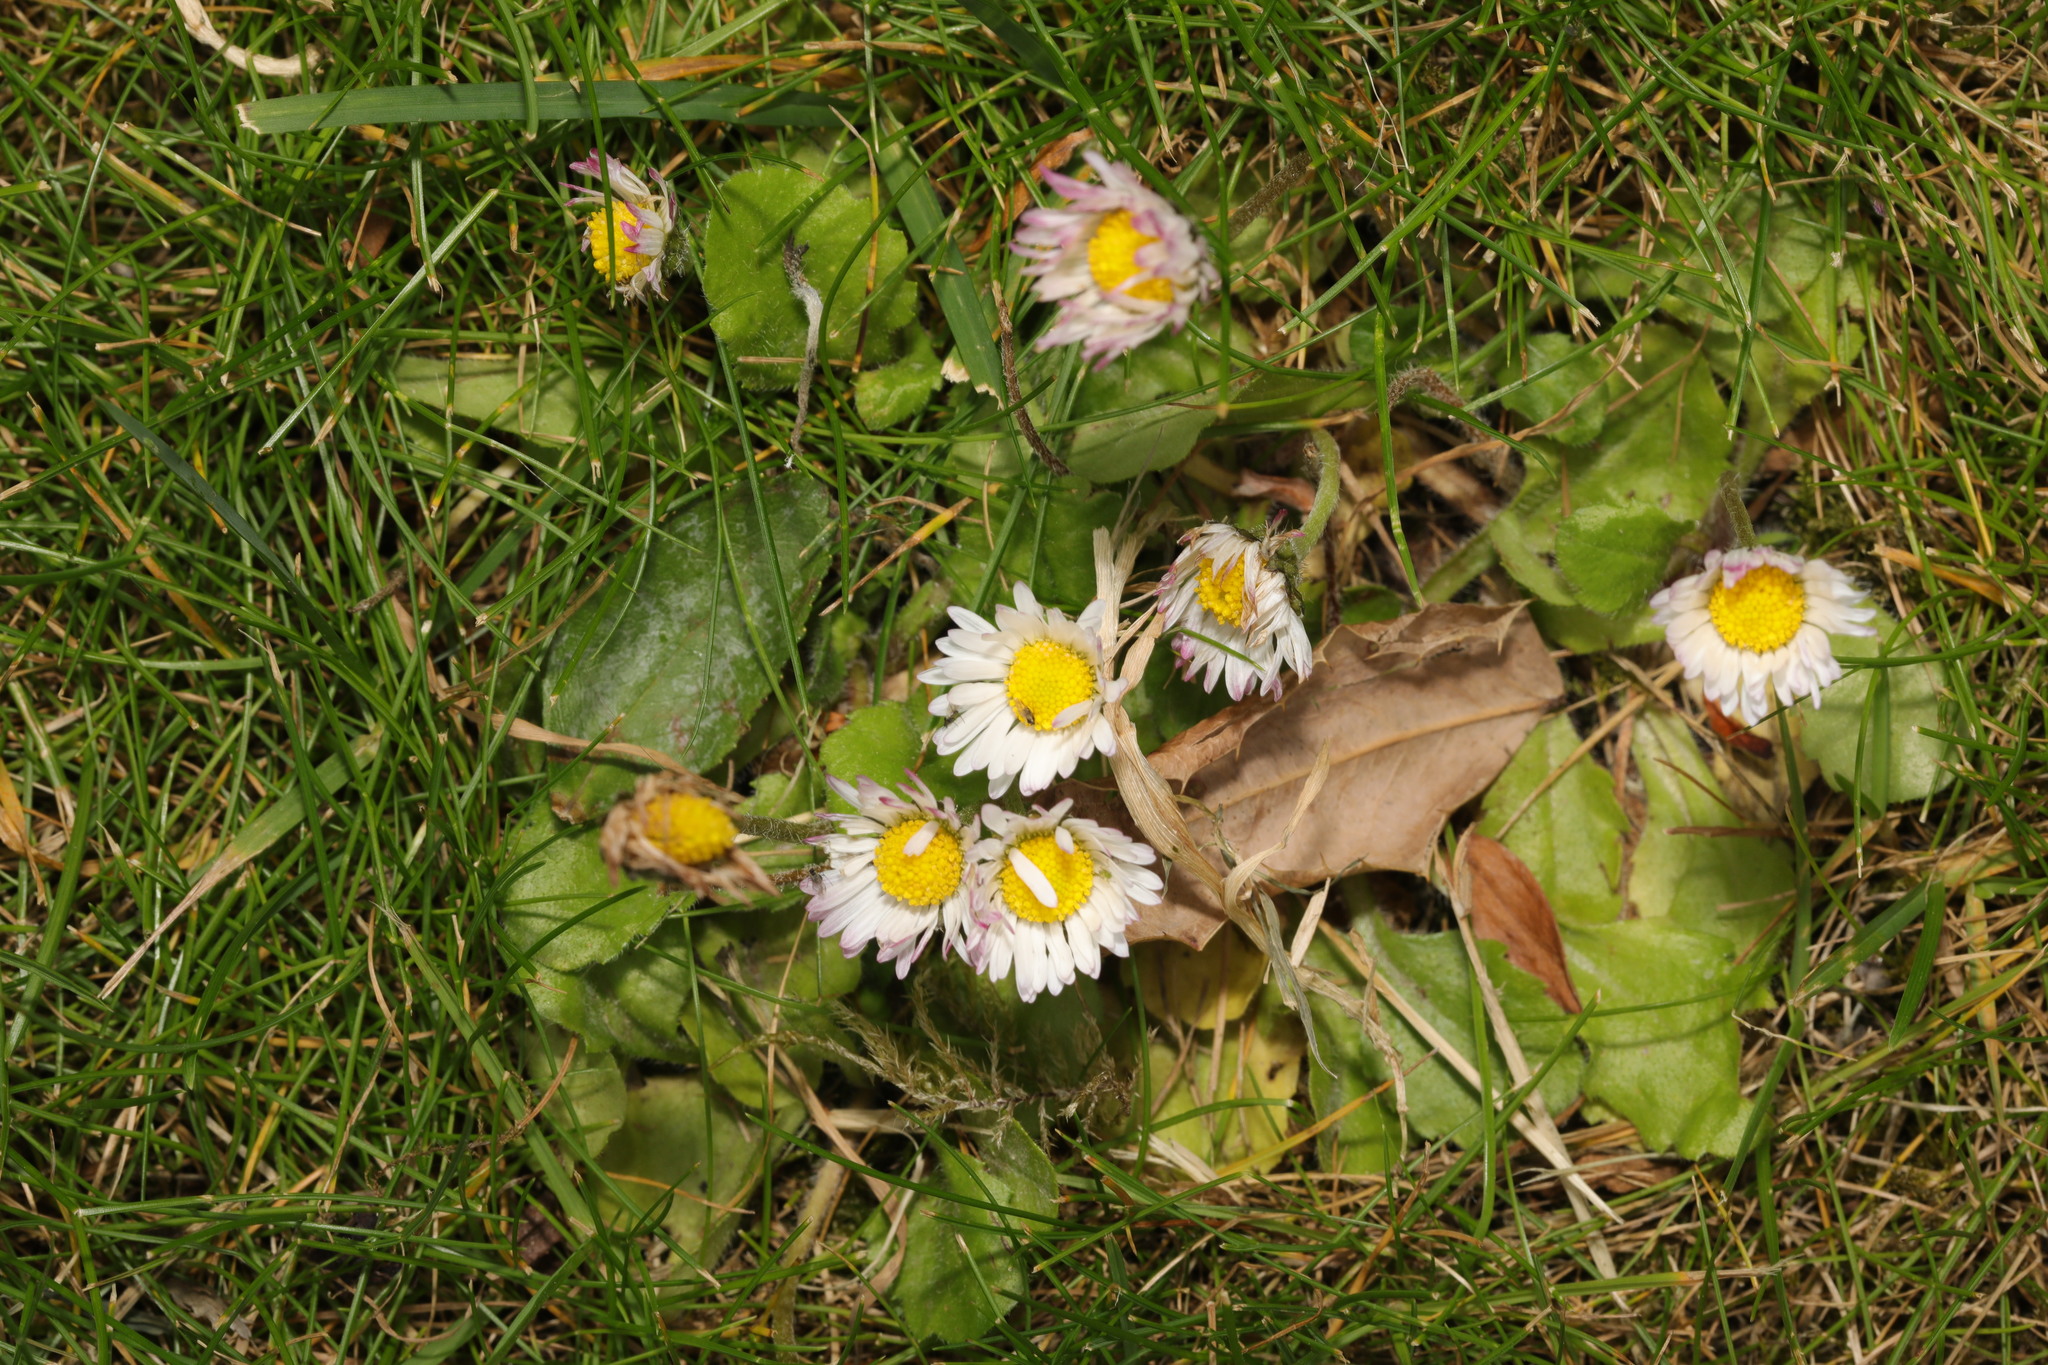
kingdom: Plantae
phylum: Tracheophyta
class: Magnoliopsida
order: Asterales
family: Asteraceae
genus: Bellis
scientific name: Bellis perennis
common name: Lawndaisy
